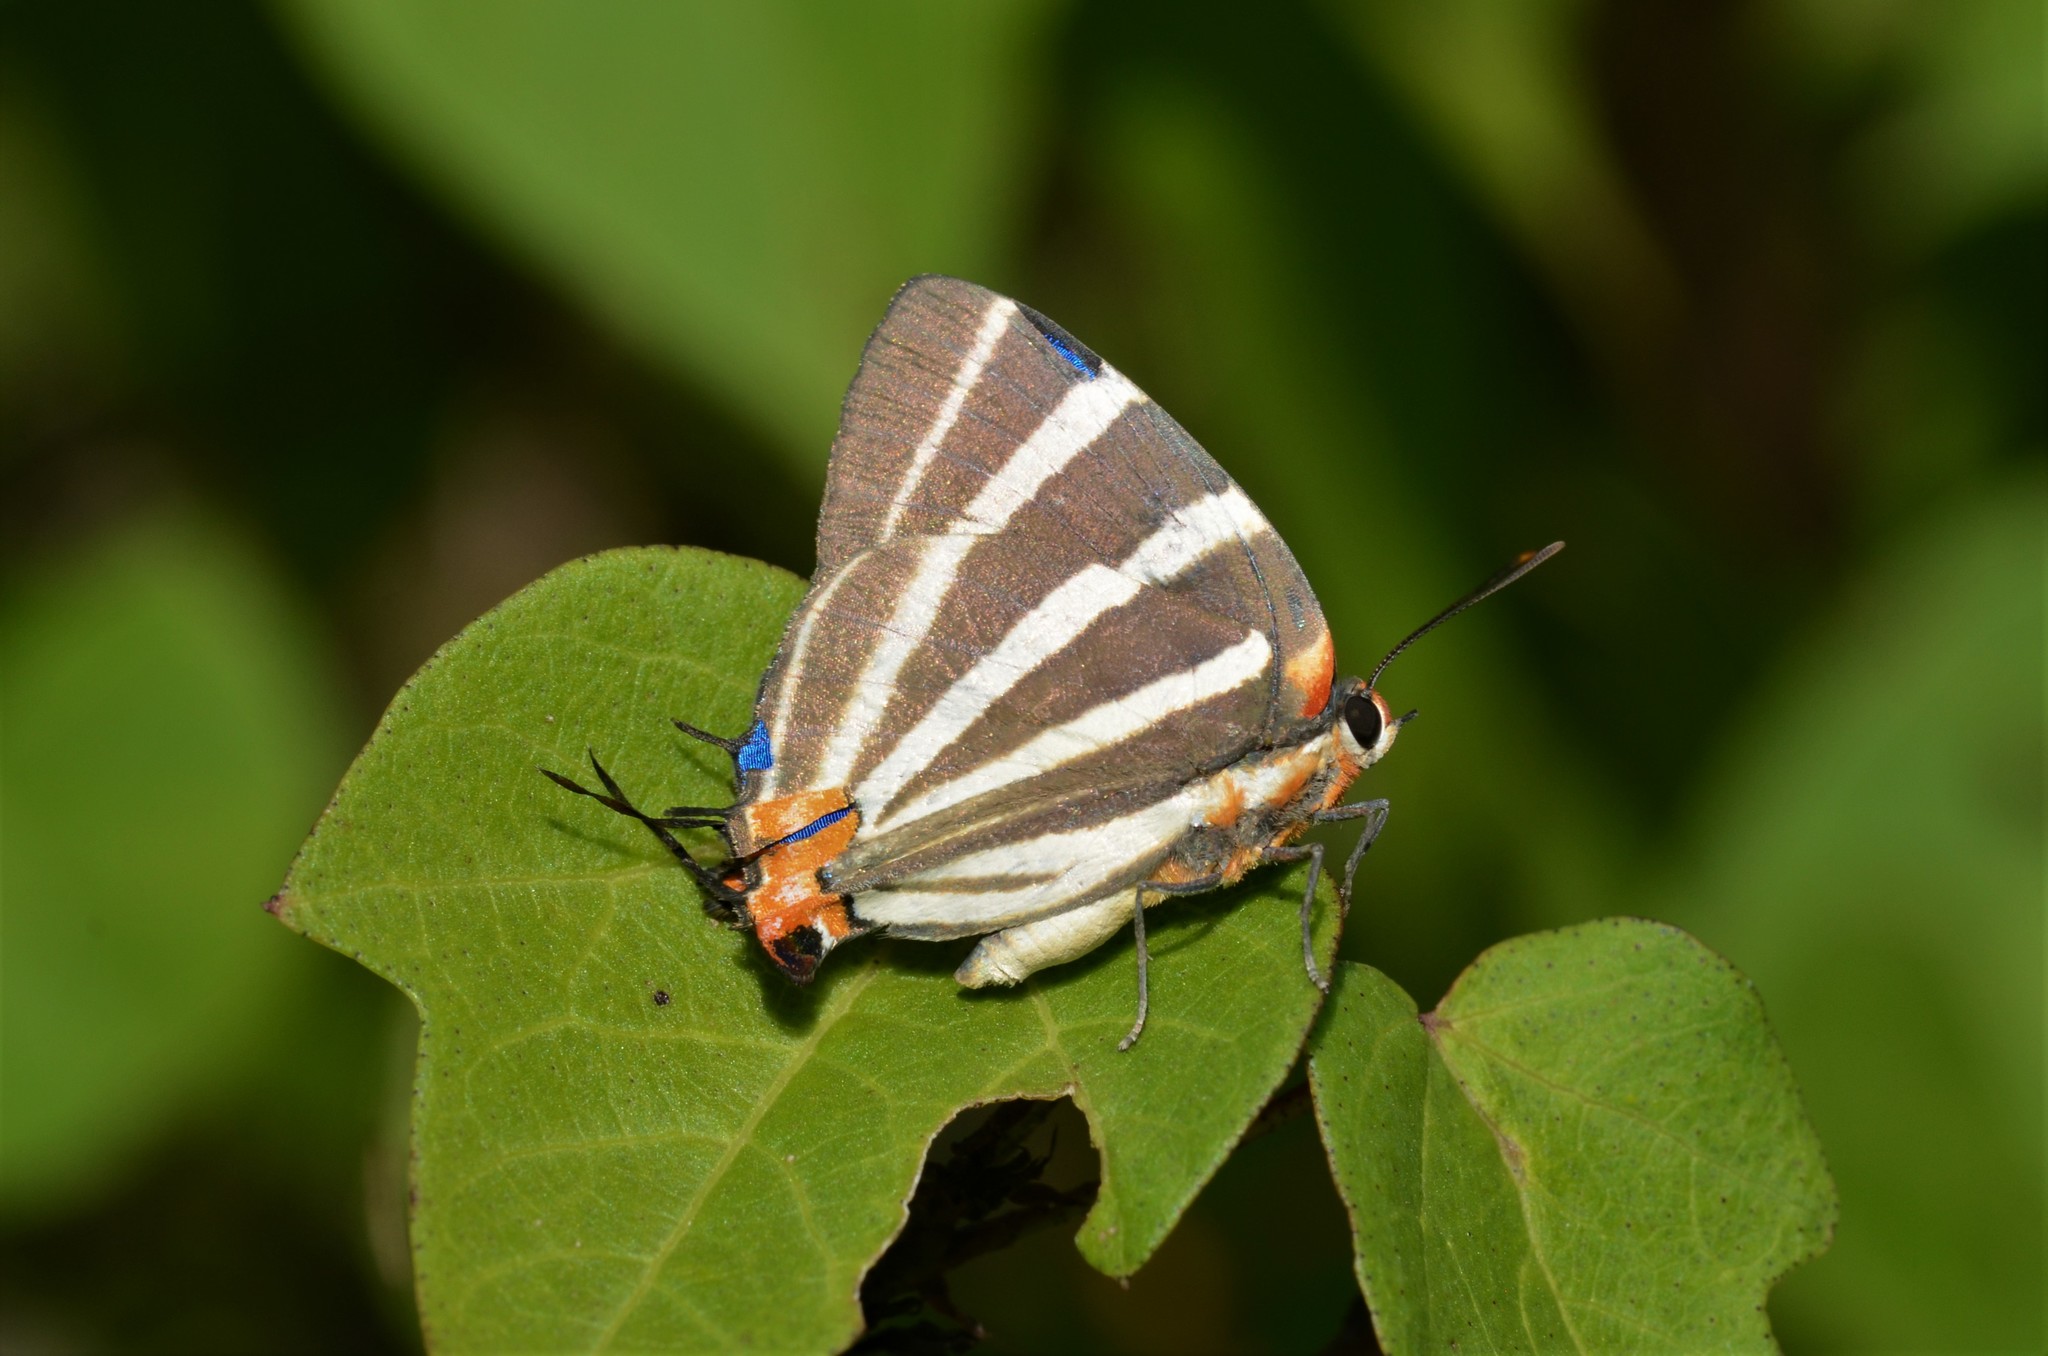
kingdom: Animalia
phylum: Arthropoda
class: Insecta
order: Lepidoptera
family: Lycaenidae
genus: Thecla
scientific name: Thecla bathildis
